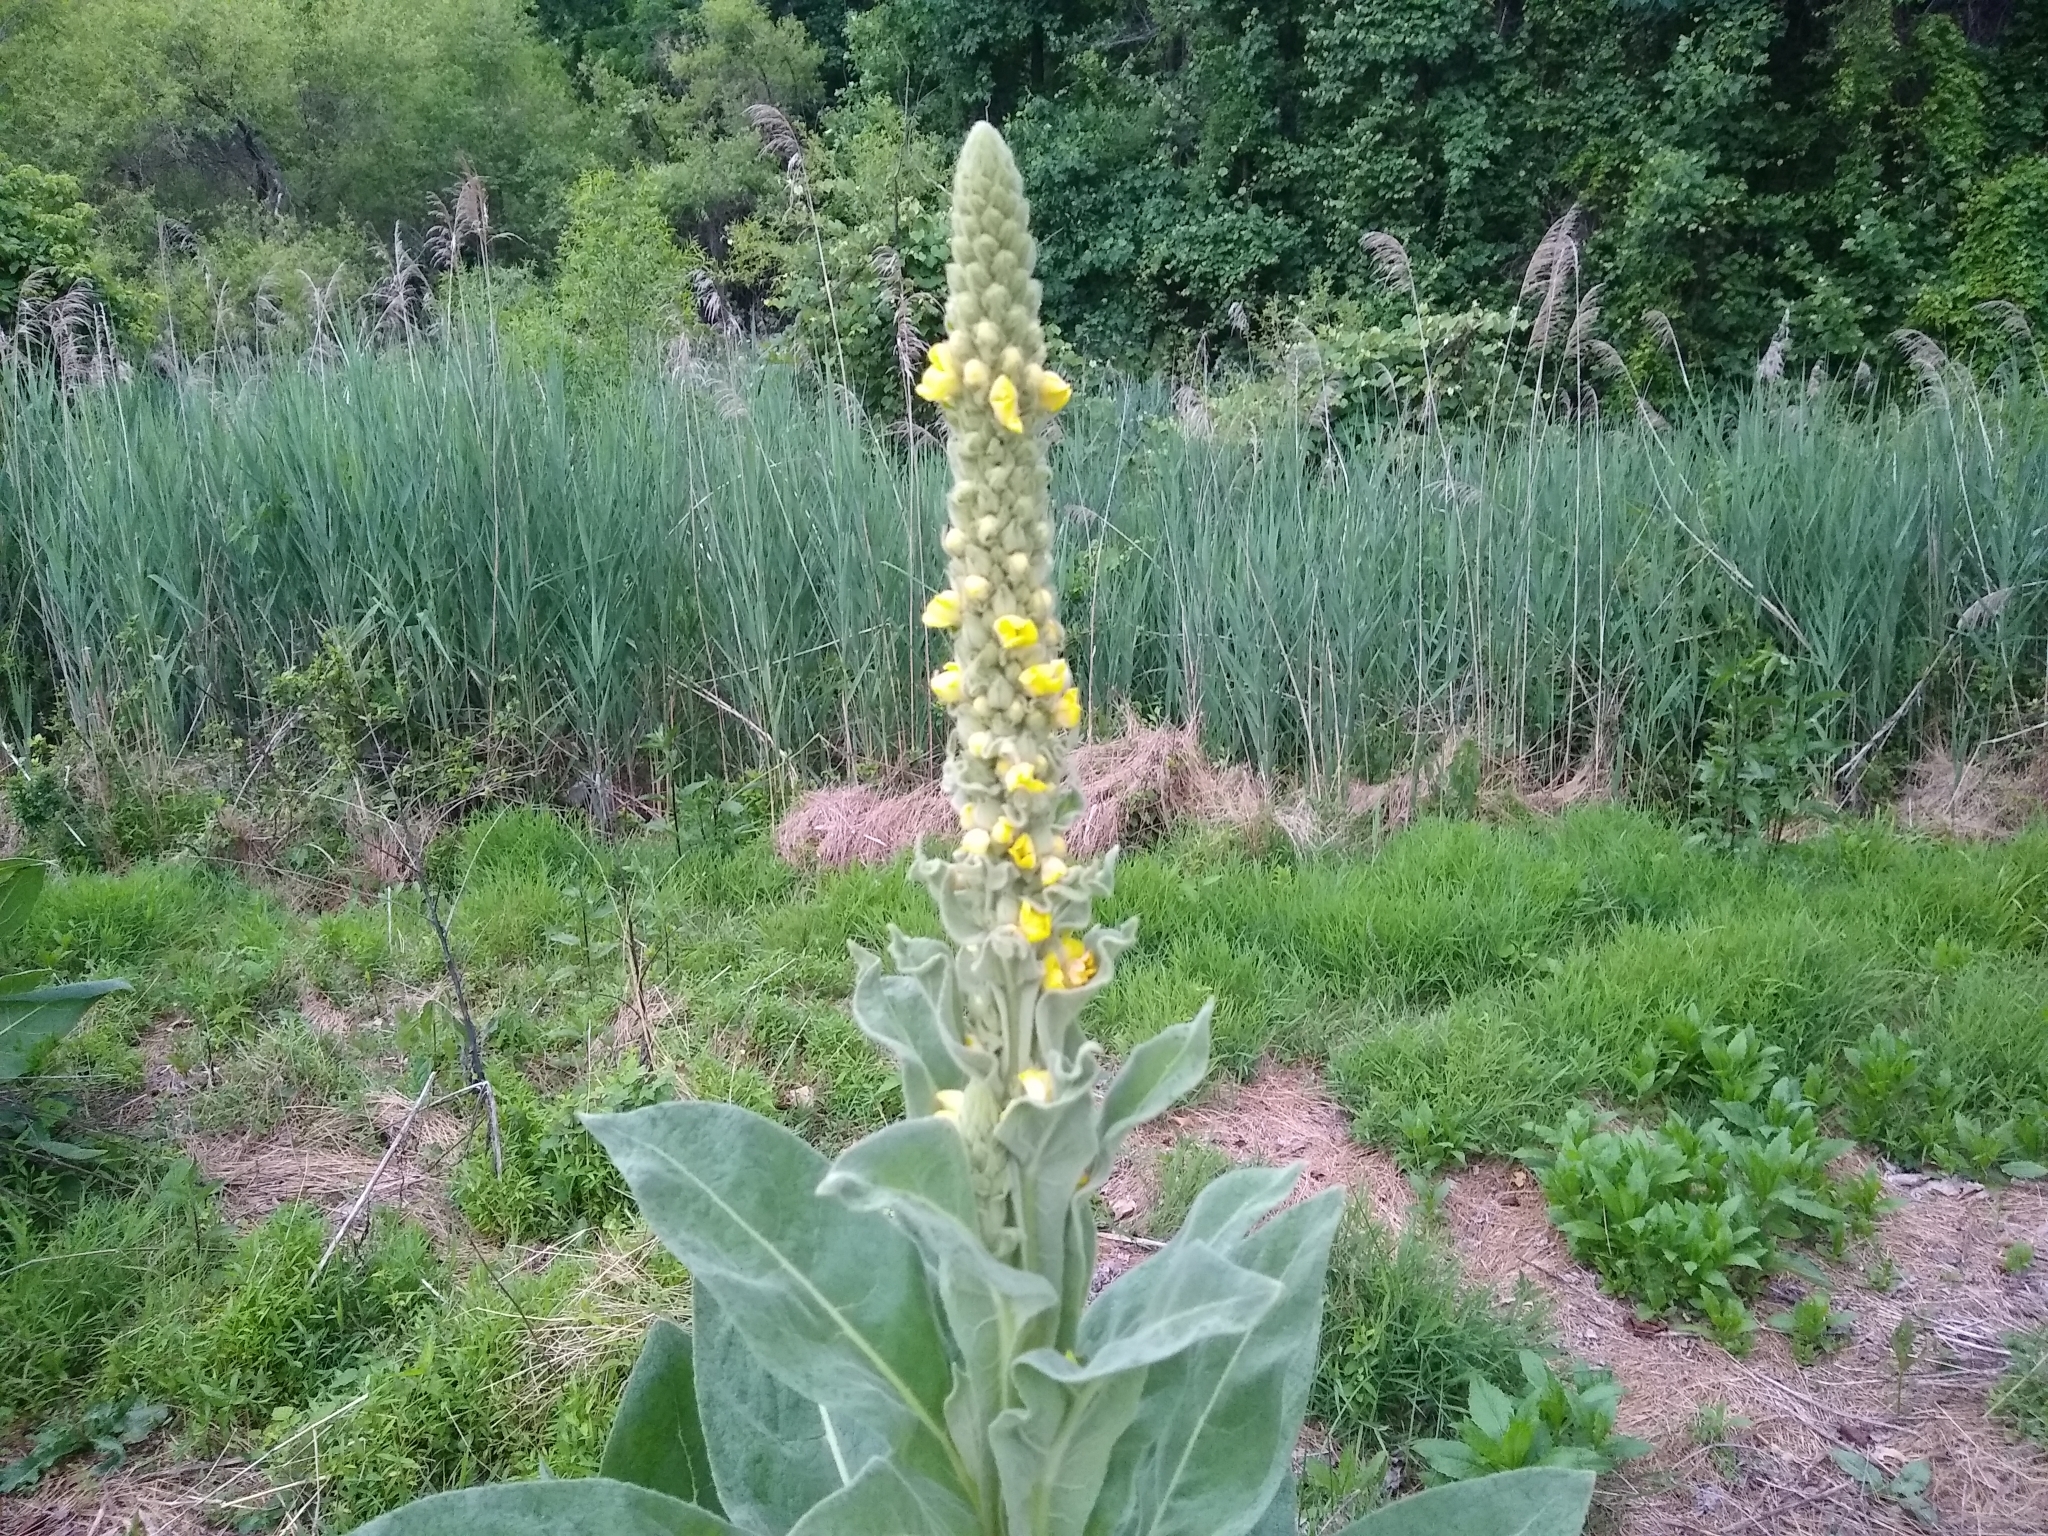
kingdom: Plantae
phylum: Tracheophyta
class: Magnoliopsida
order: Lamiales
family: Scrophulariaceae
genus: Verbascum
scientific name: Verbascum thapsus
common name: Common mullein
